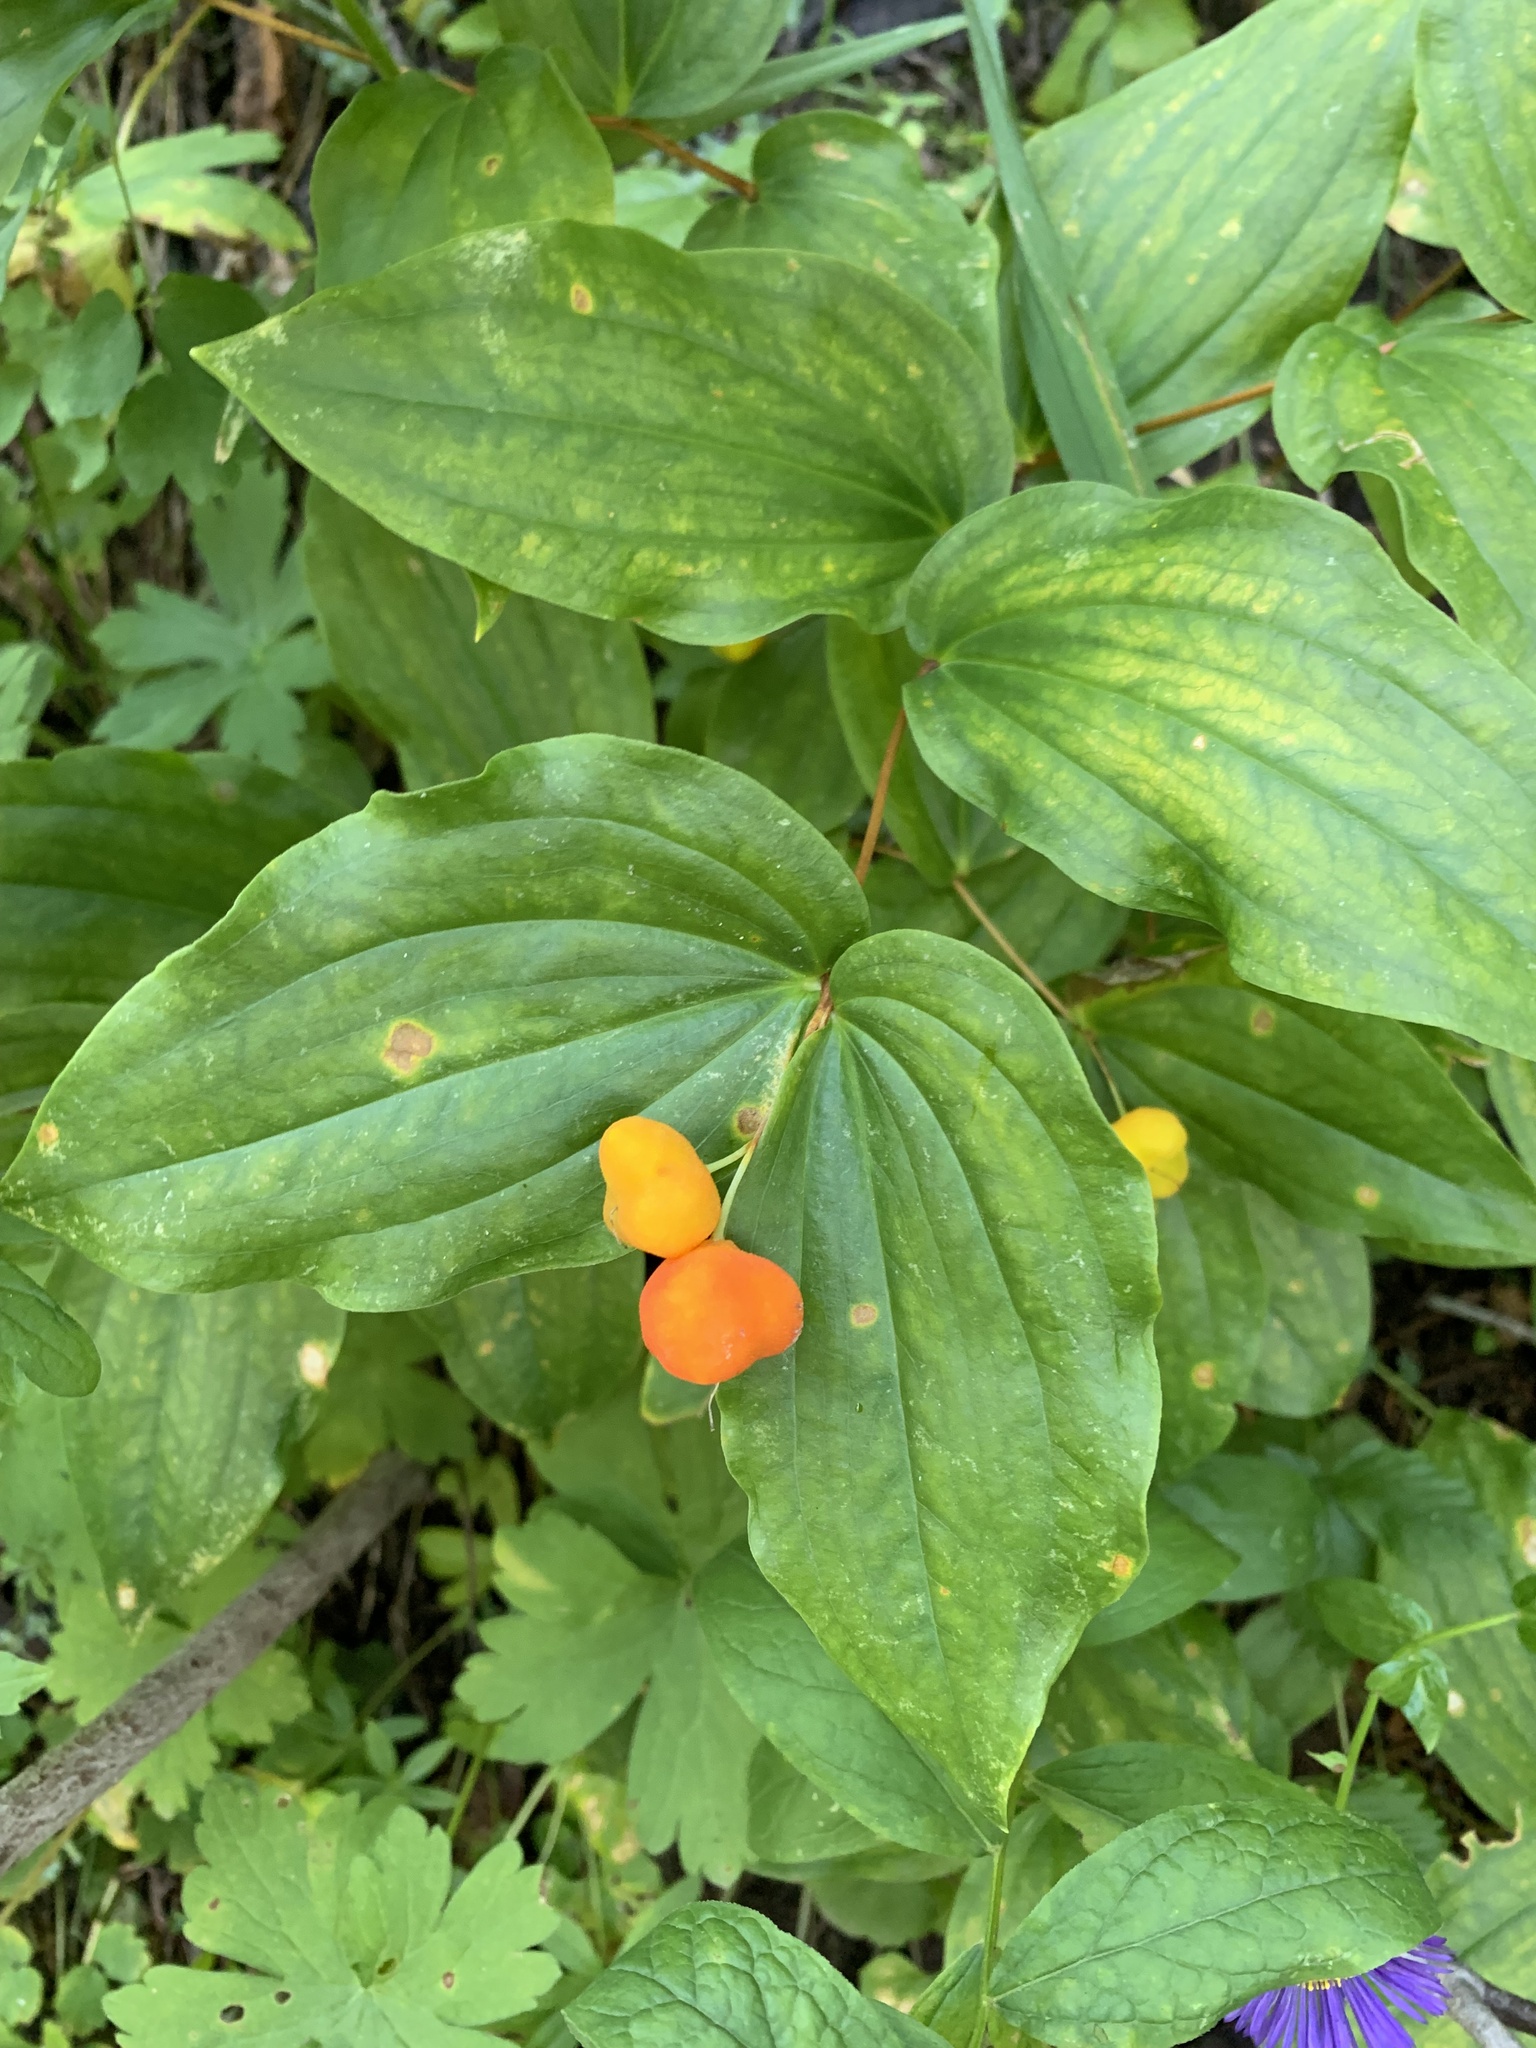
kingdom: Plantae
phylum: Tracheophyta
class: Liliopsida
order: Liliales
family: Liliaceae
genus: Prosartes
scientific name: Prosartes trachycarpa
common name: Rough-fruit fairy-bells
